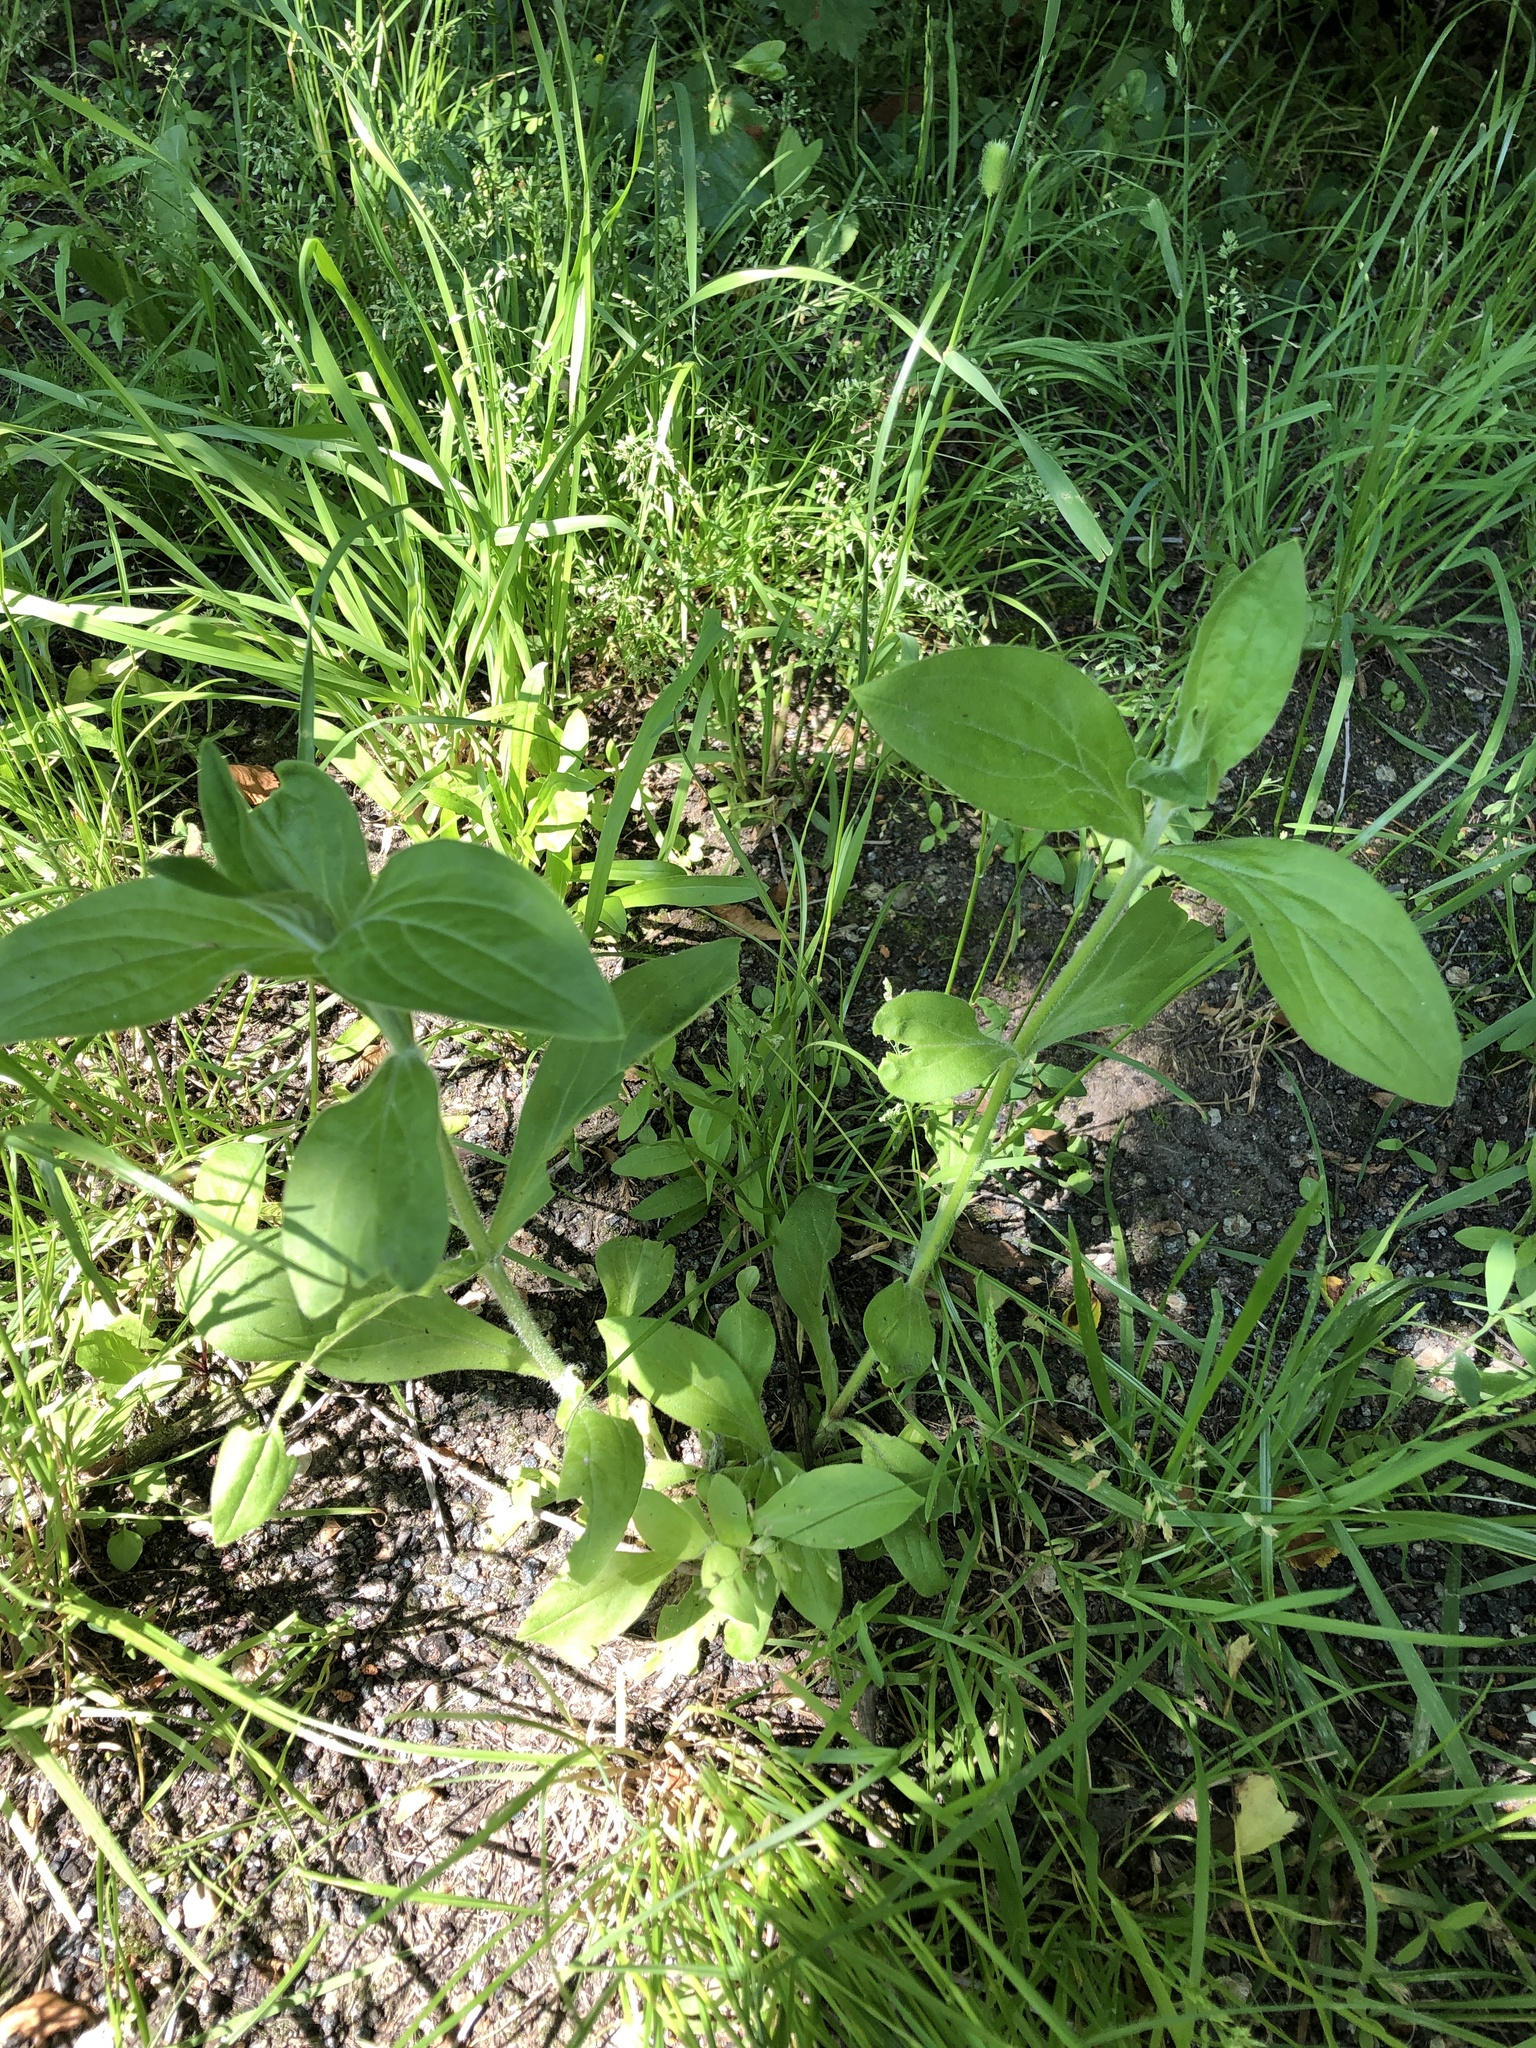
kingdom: Plantae
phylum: Tracheophyta
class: Magnoliopsida
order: Caryophyllales
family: Caryophyllaceae
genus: Silene
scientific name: Silene latifolia
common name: White campion
